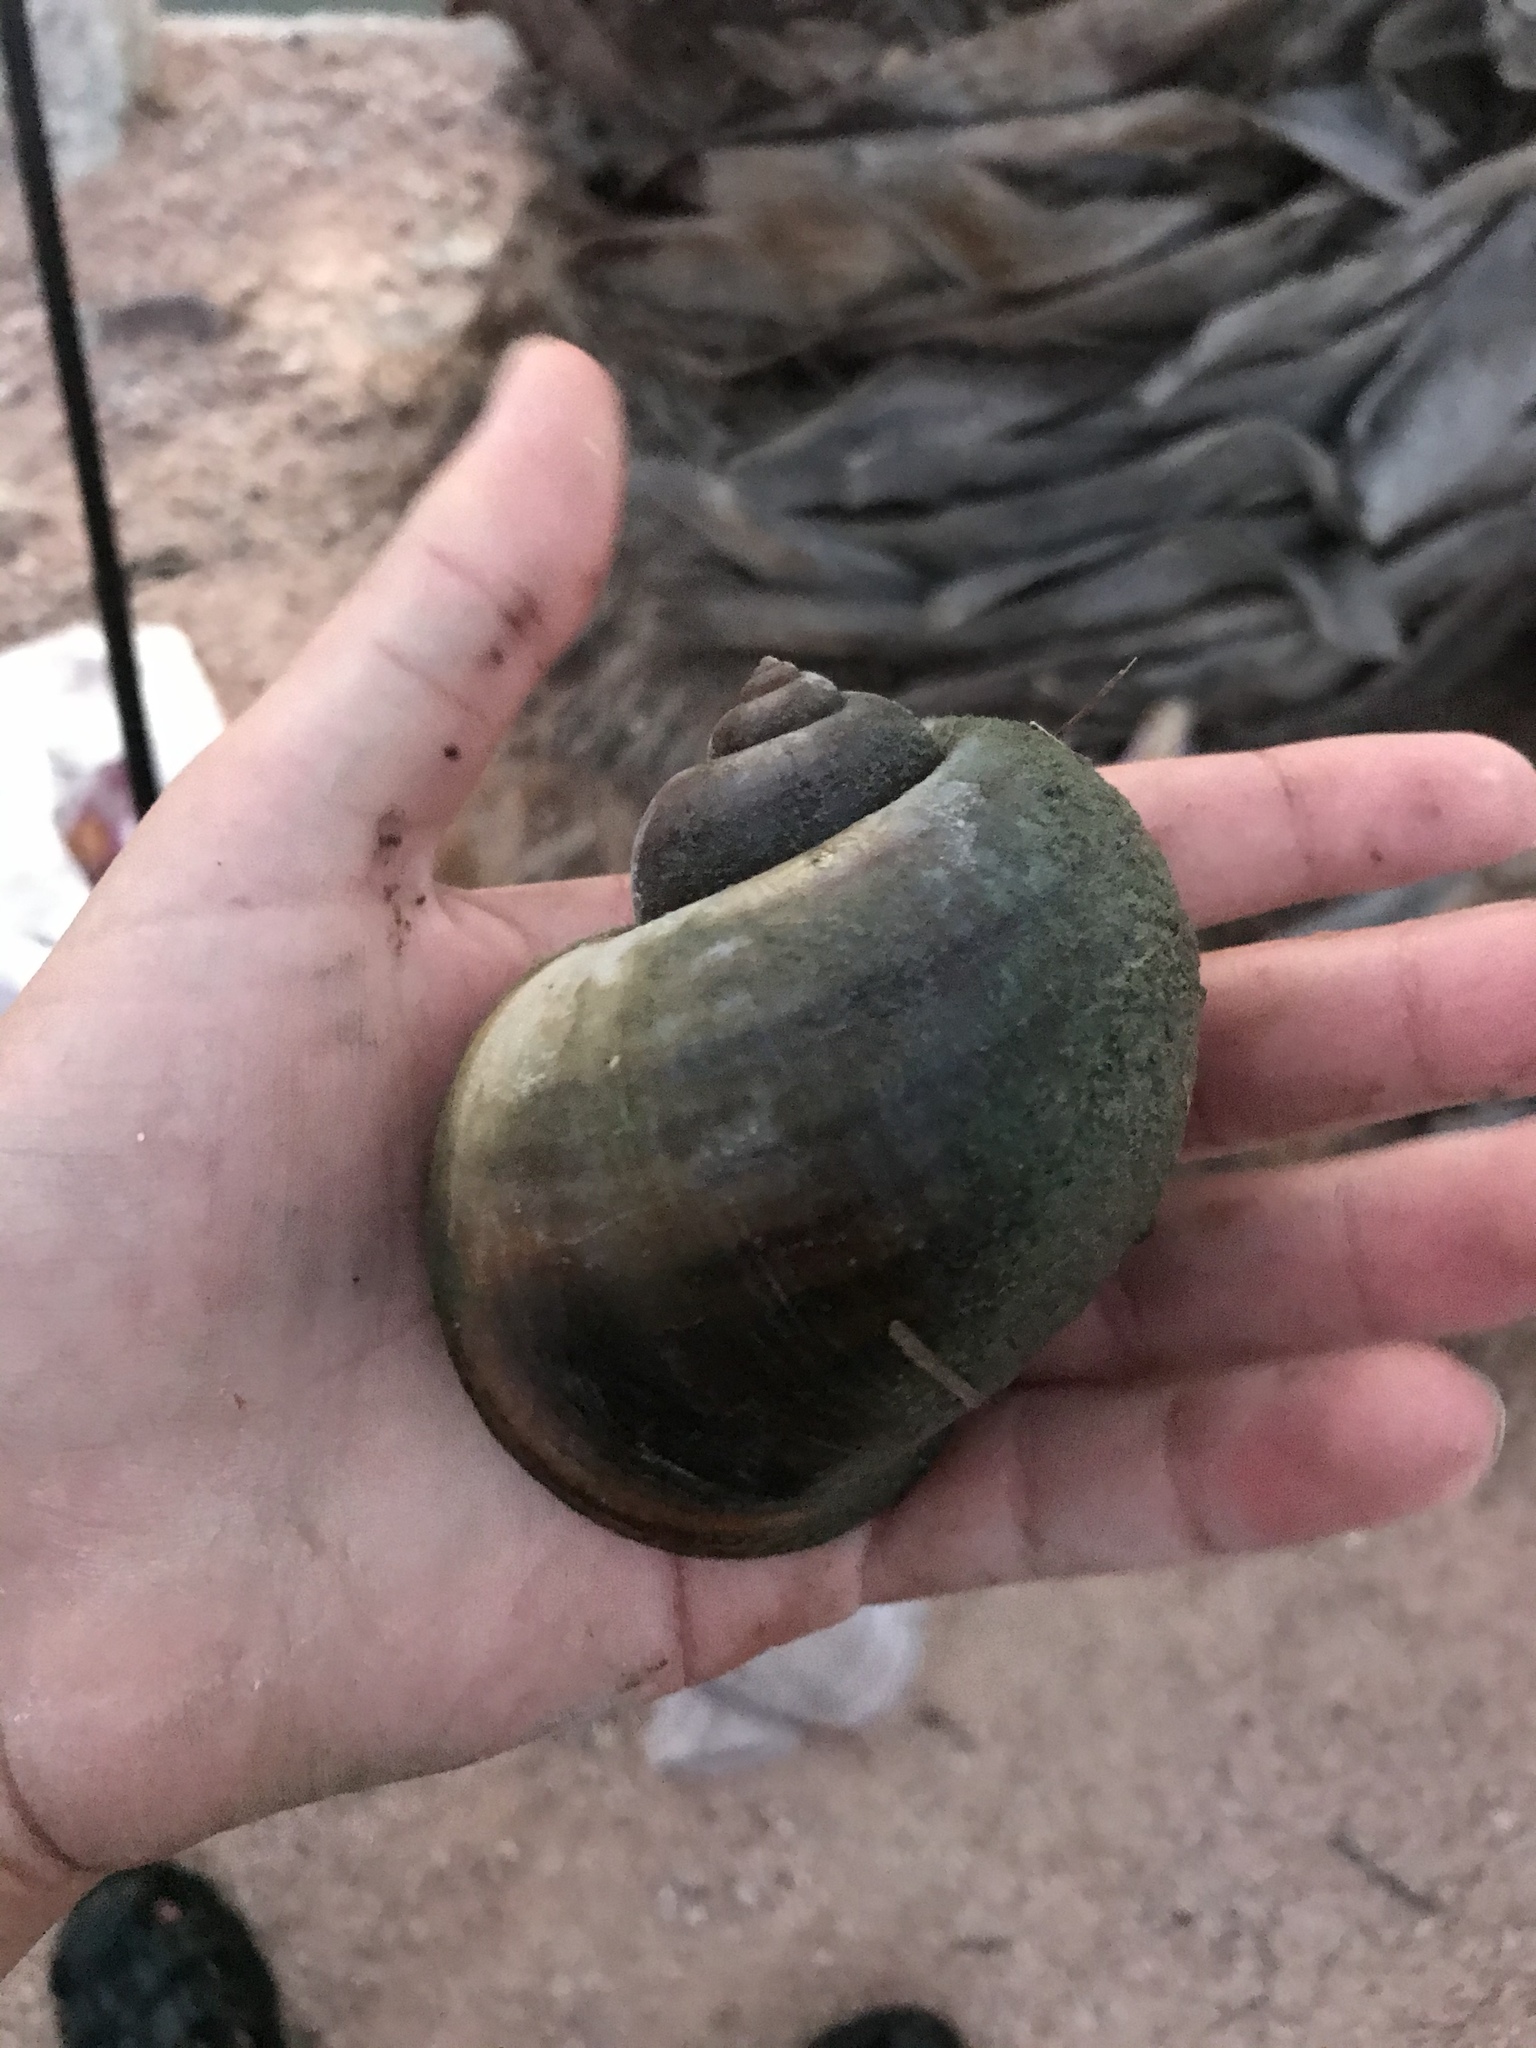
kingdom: Animalia
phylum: Mollusca
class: Gastropoda
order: Architaenioglossa
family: Ampullariidae
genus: Pomacea
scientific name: Pomacea maculata
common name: Giant applesnail
